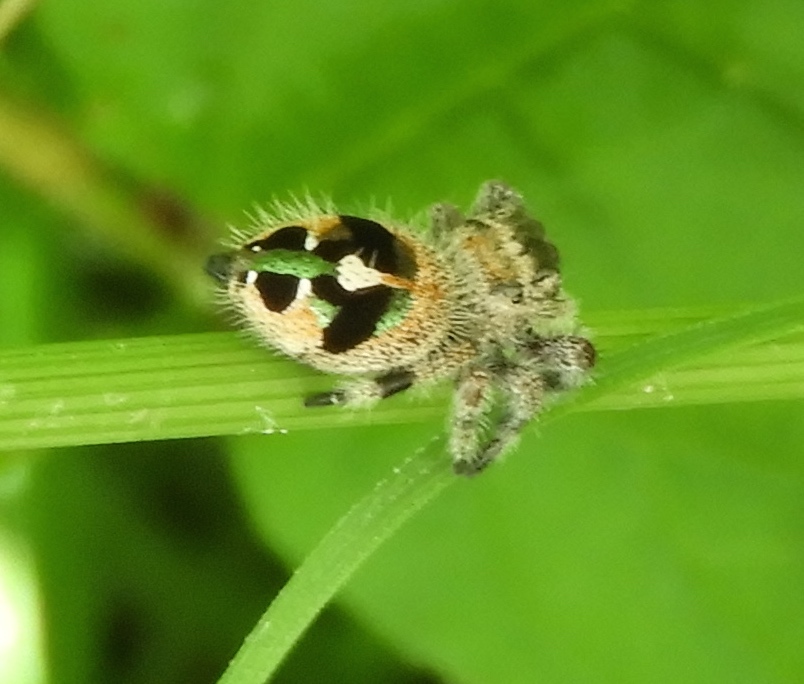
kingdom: Animalia
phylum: Arthropoda
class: Arachnida
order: Araneae
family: Salticidae
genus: Phidippus
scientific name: Phidippus maddisoni
